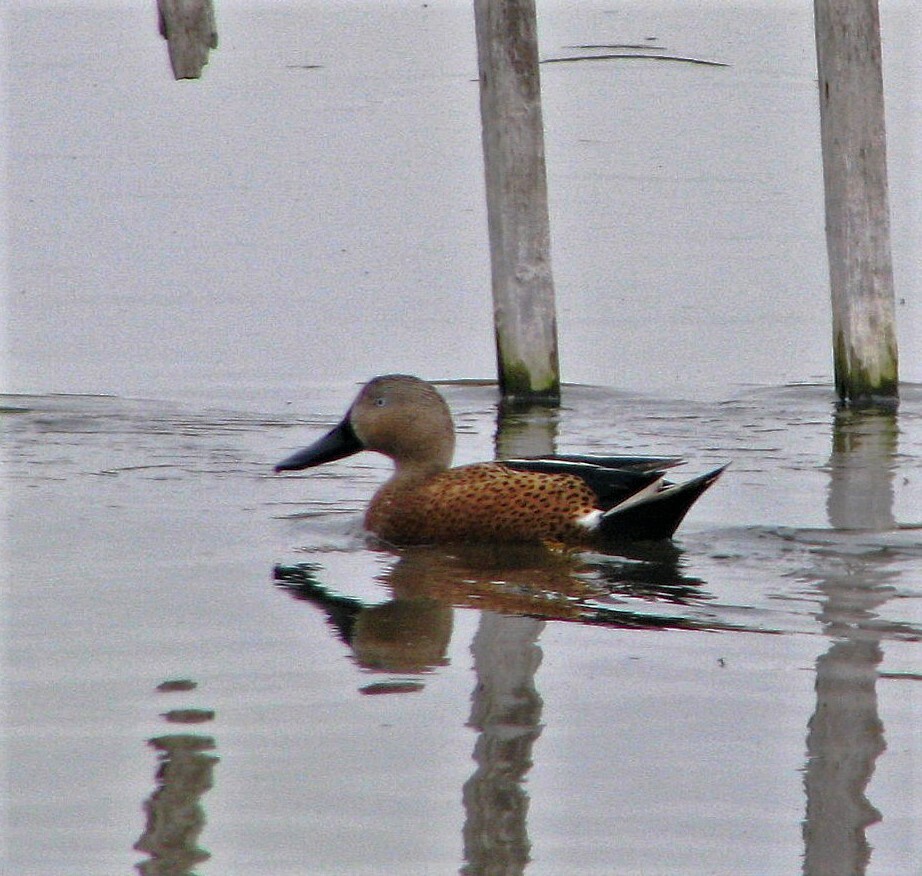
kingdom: Animalia
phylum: Chordata
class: Aves
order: Anseriformes
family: Anatidae
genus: Spatula
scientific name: Spatula platalea
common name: Red shoveler
